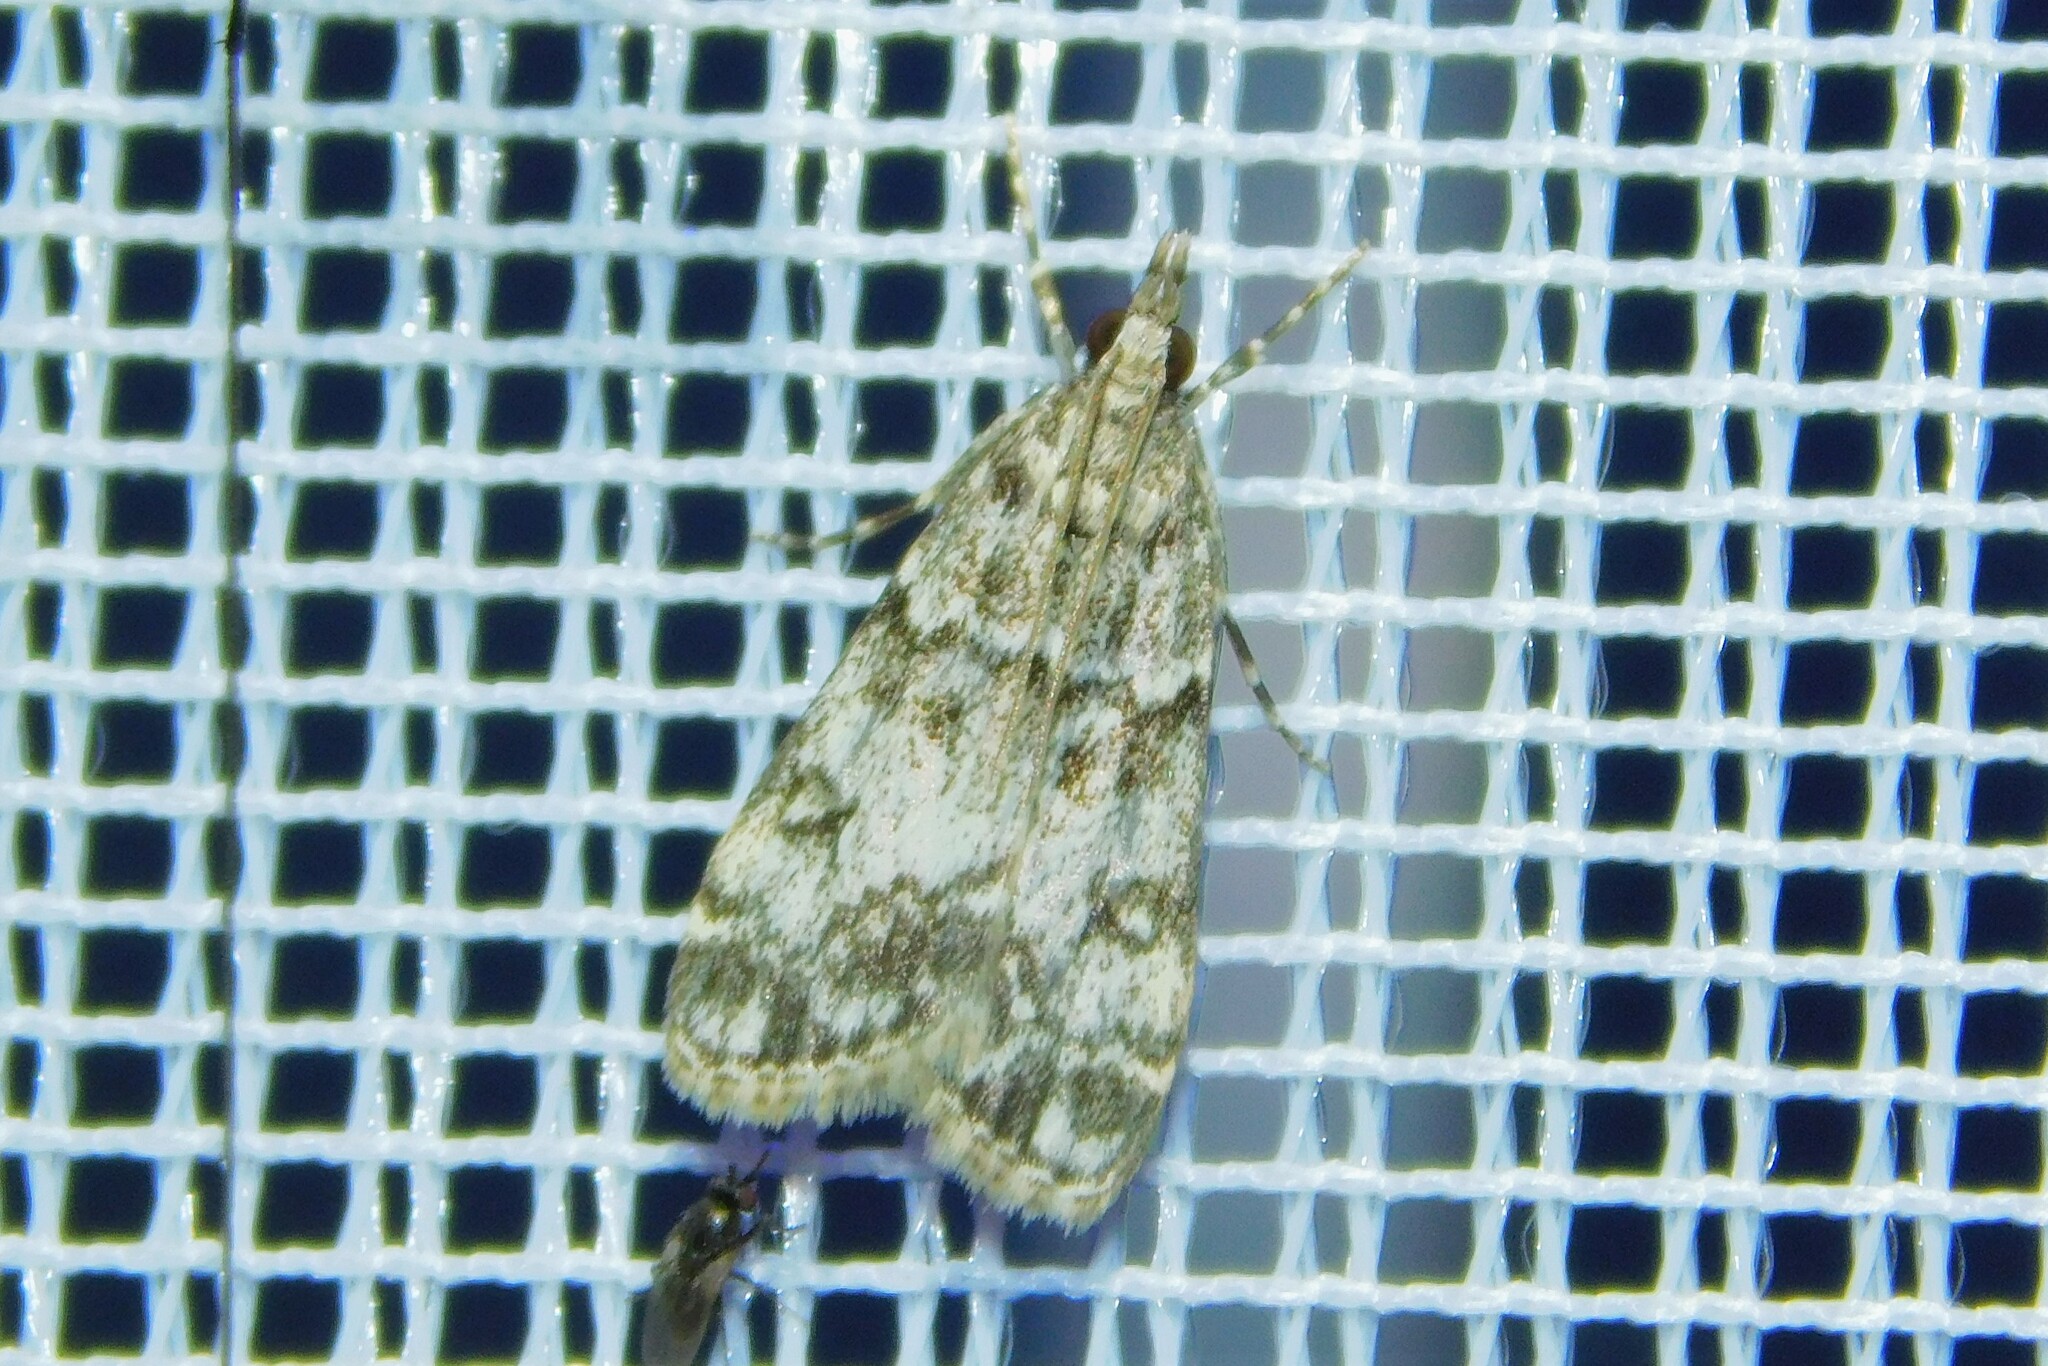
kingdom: Animalia
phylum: Arthropoda
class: Insecta
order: Lepidoptera
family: Crambidae
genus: Eudonia
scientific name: Eudonia lacustrata
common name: Little grey
